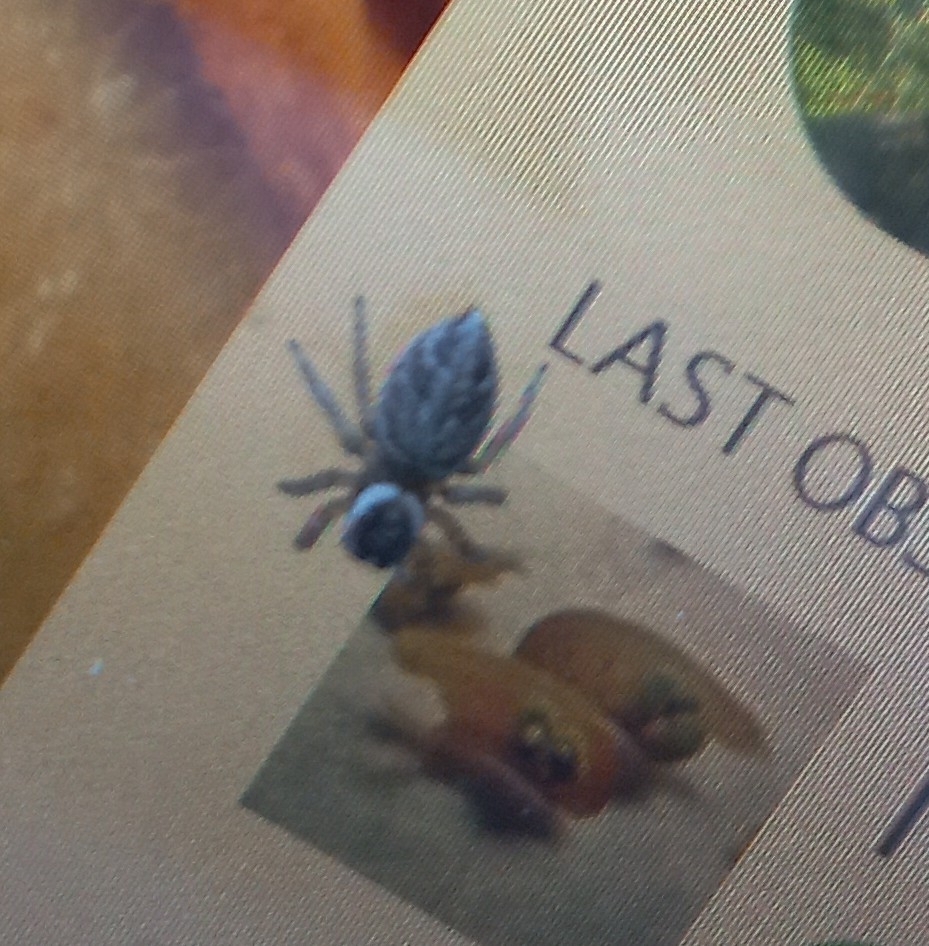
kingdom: Animalia
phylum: Arthropoda
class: Arachnida
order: Araneae
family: Salticidae
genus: Maratus
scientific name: Maratus griseus
